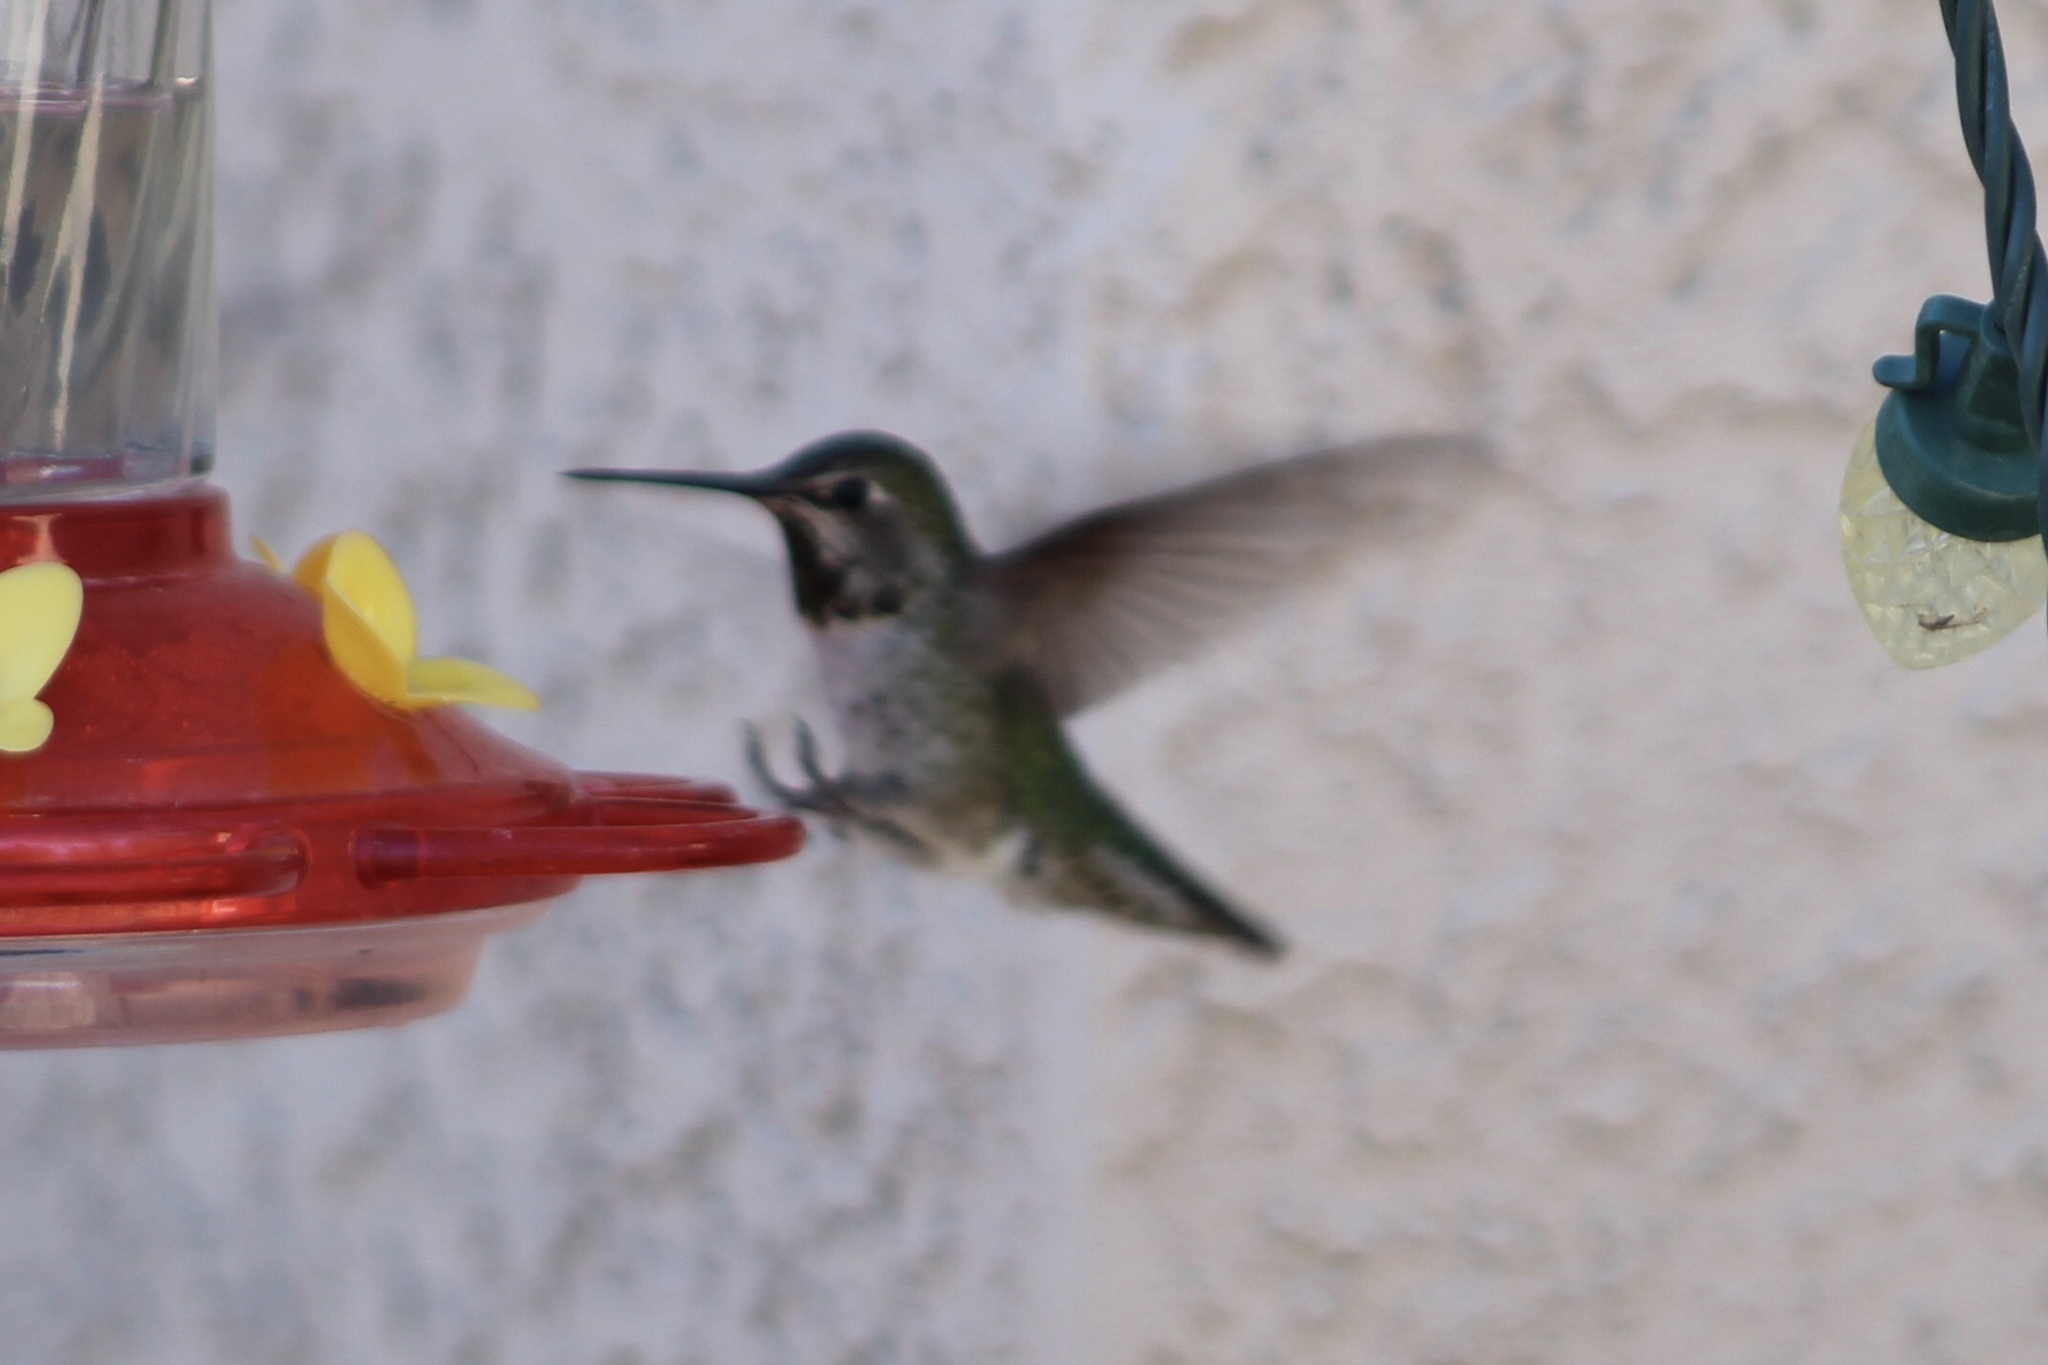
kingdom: Animalia
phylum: Chordata
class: Aves
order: Apodiformes
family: Trochilidae
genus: Calypte
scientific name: Calypte anna
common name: Anna's hummingbird
